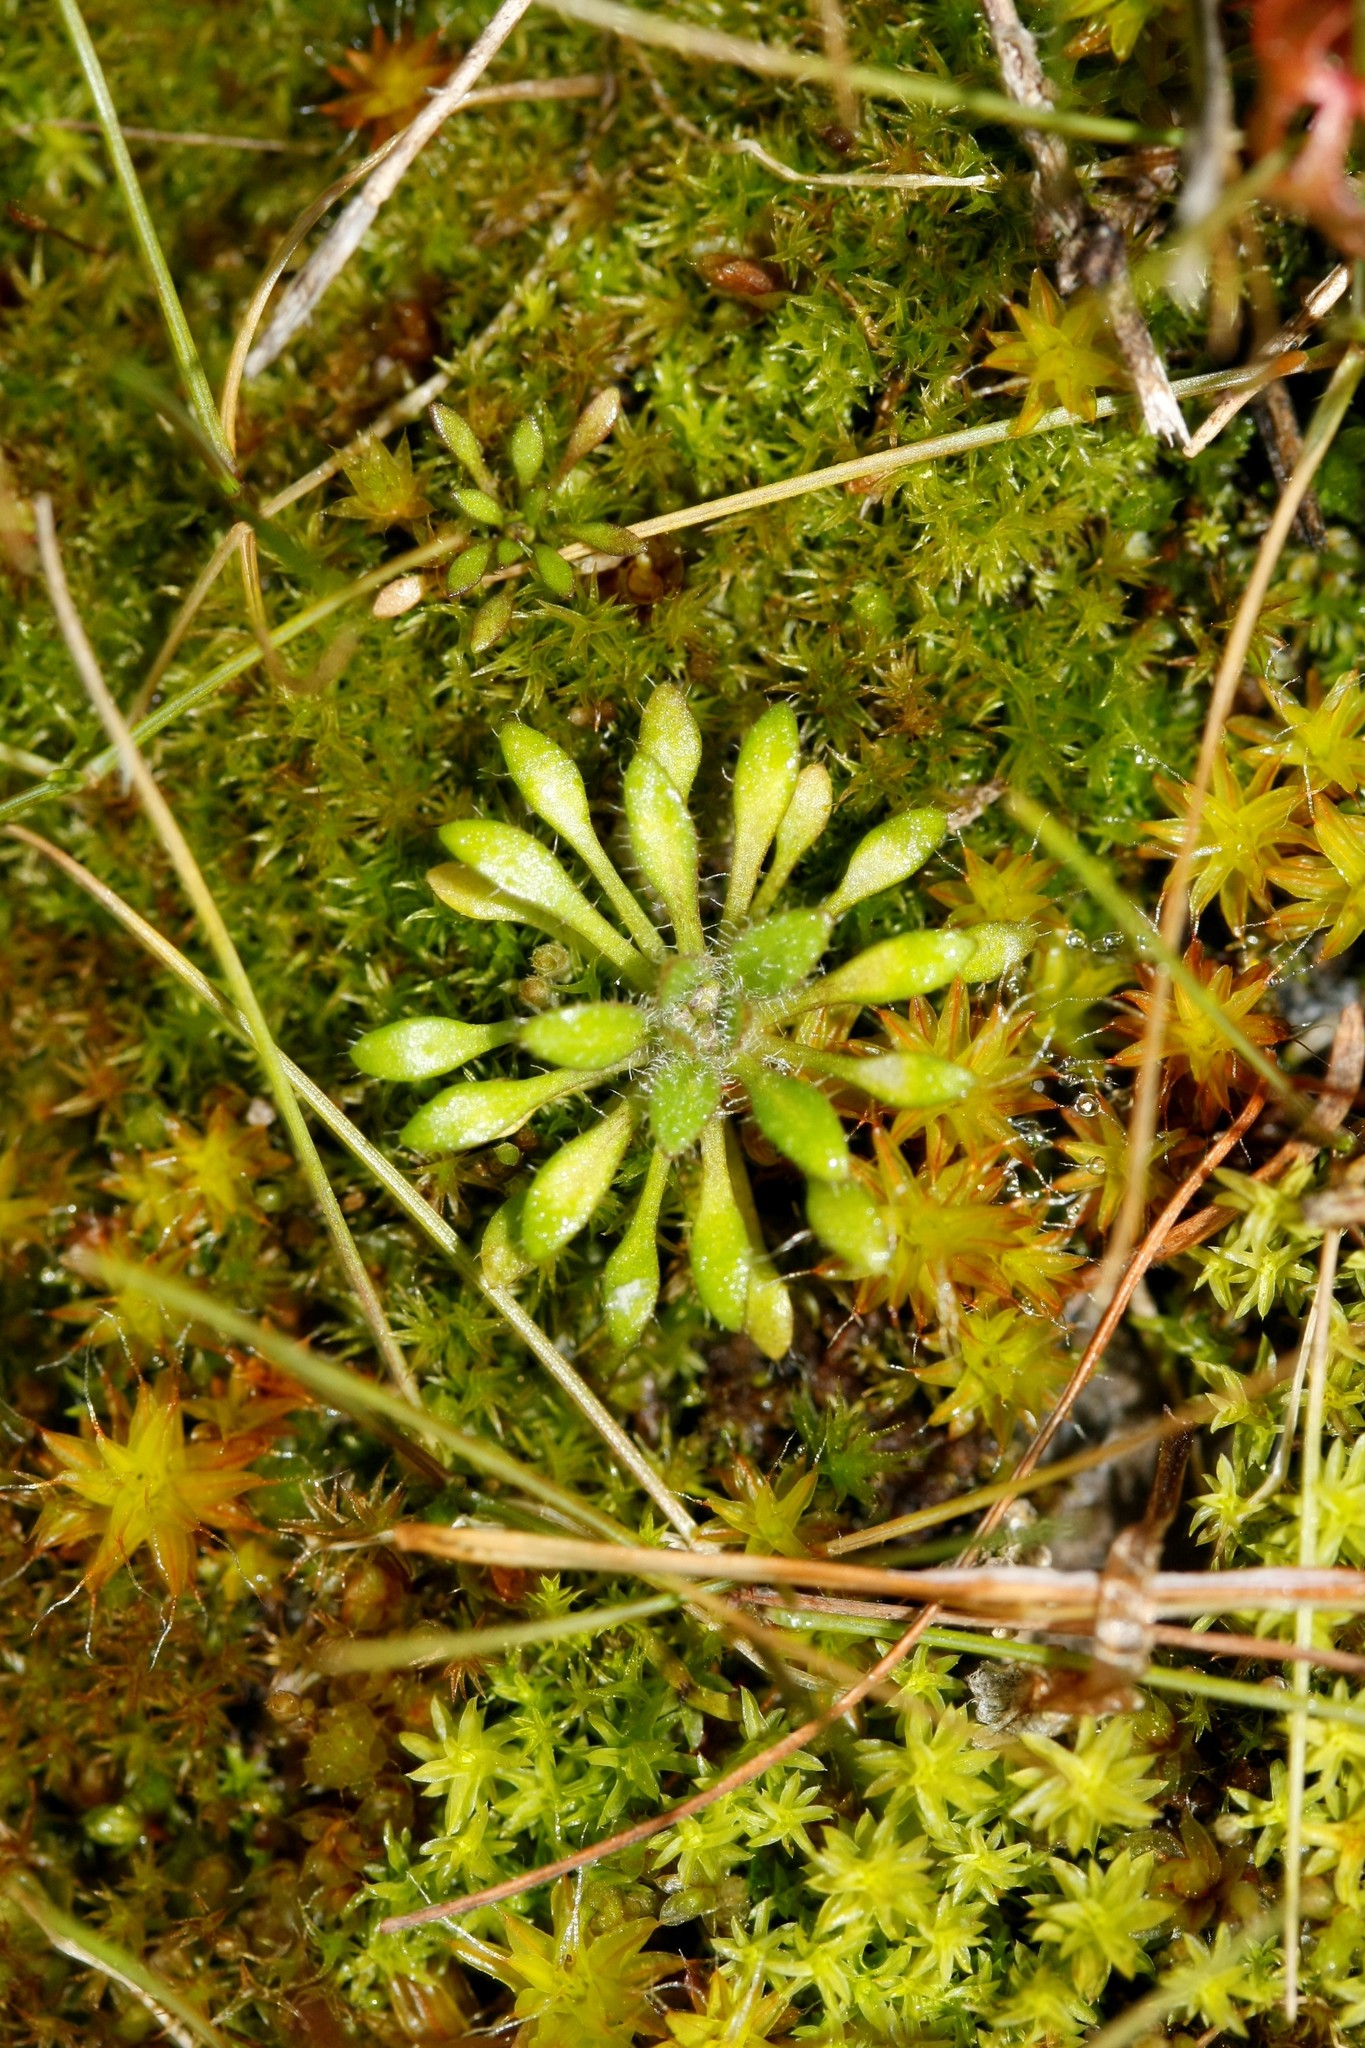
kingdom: Plantae
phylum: Tracheophyta
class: Magnoliopsida
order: Brassicales
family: Brassicaceae
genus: Draba
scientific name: Draba verna
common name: Spring draba
